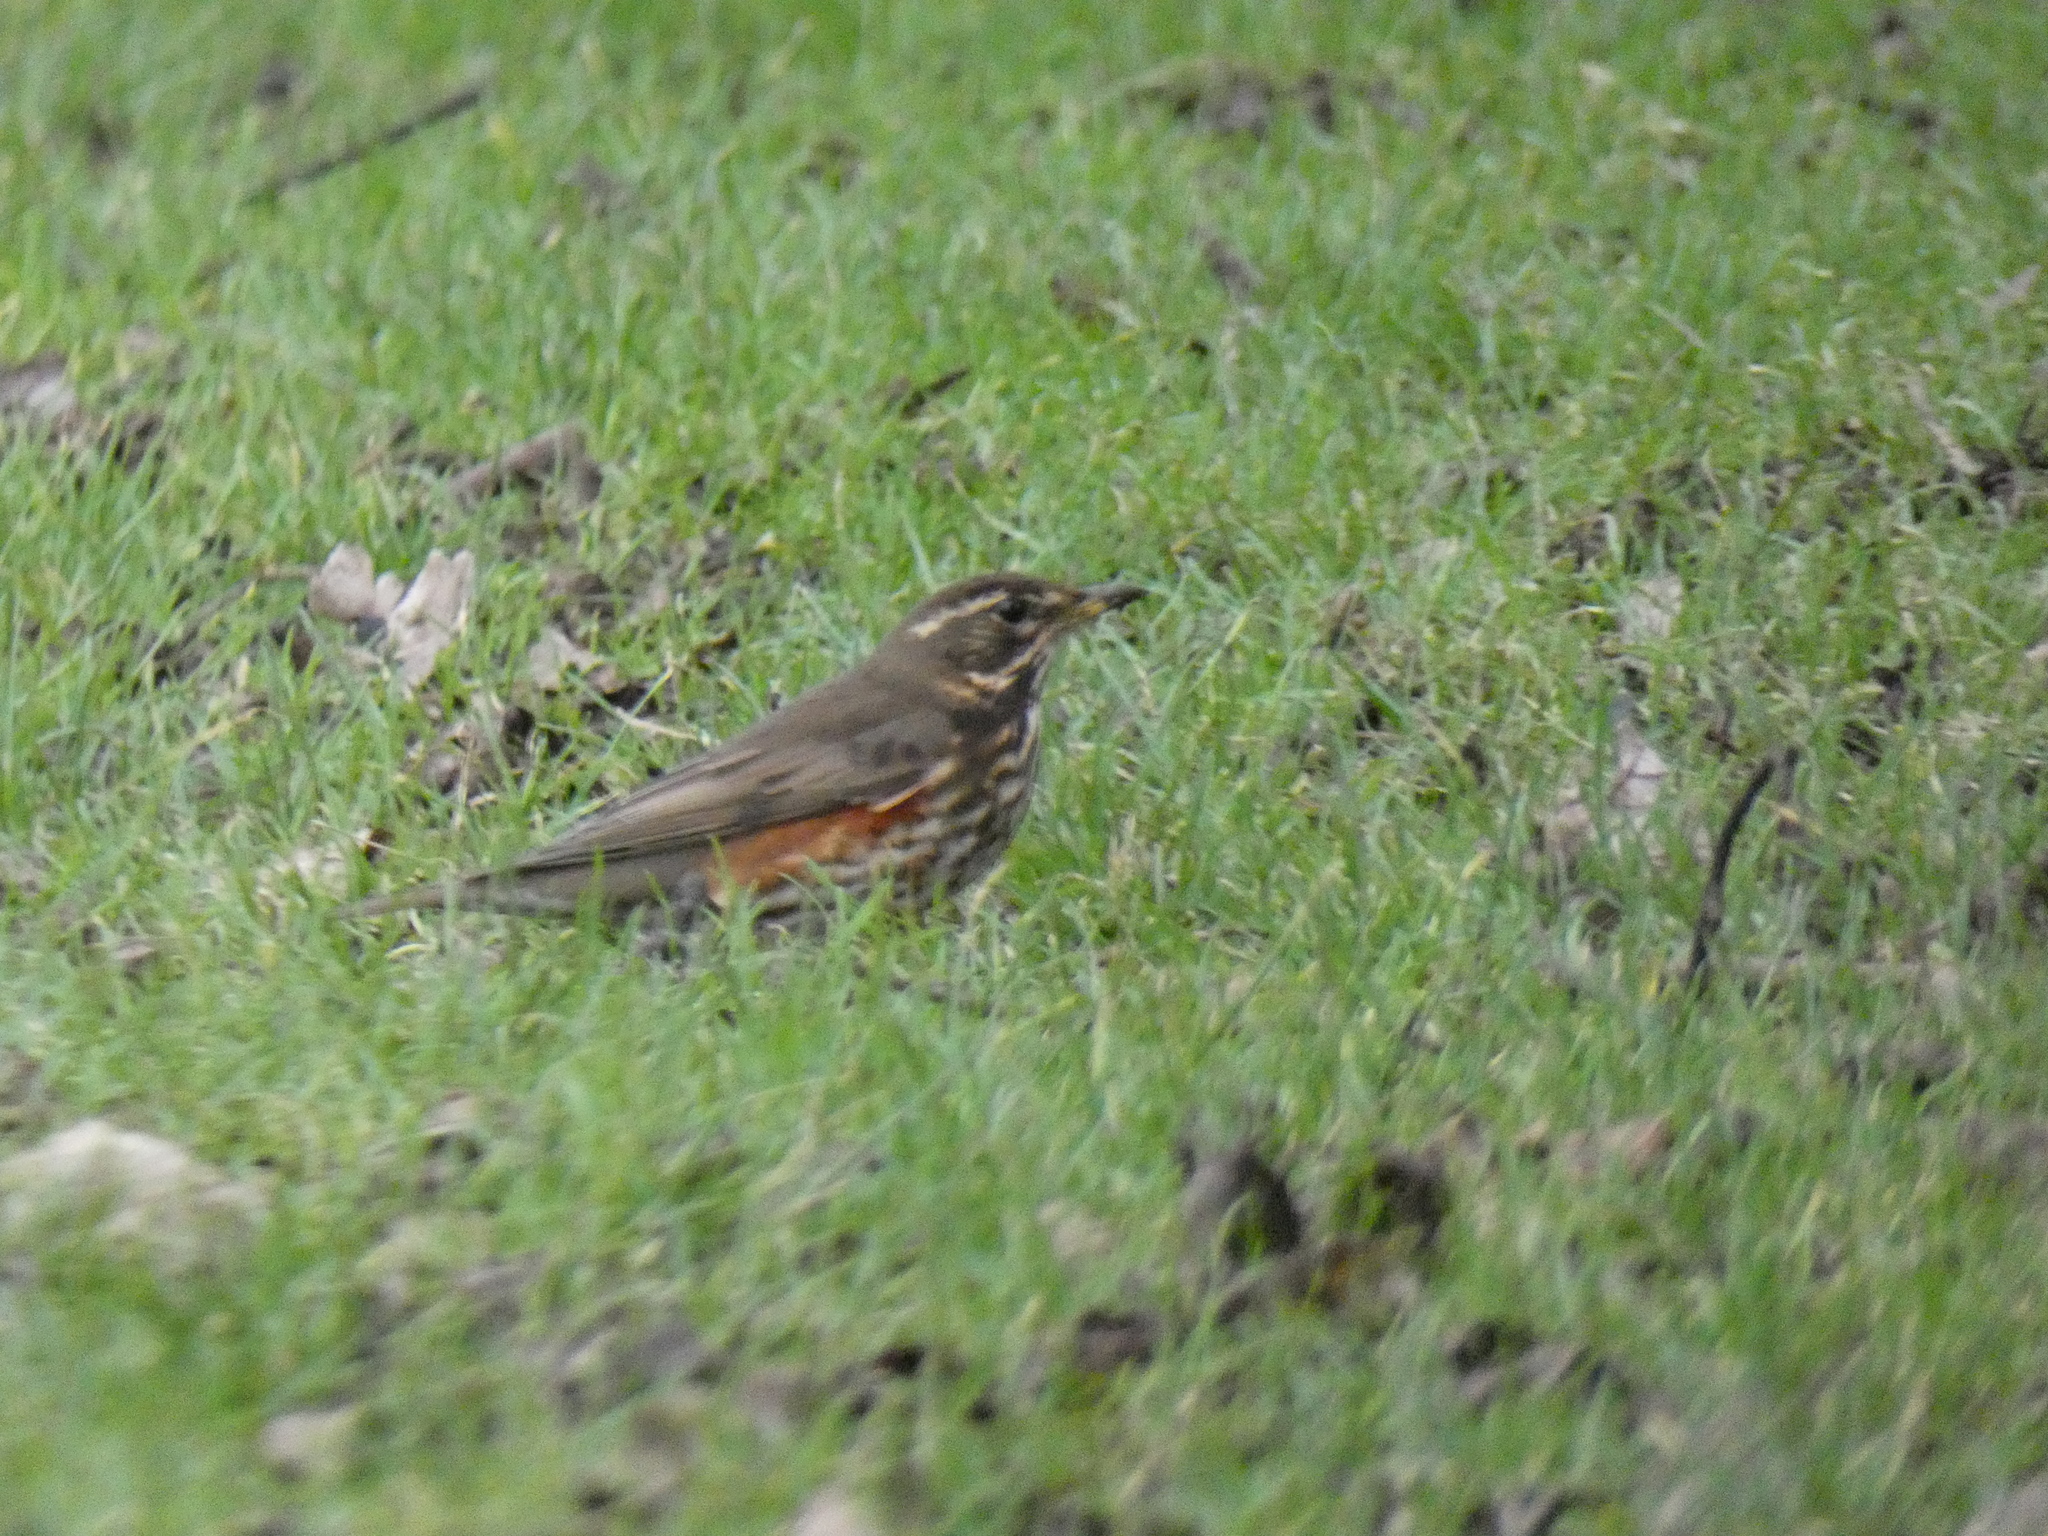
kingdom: Animalia
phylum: Chordata
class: Aves
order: Passeriformes
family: Turdidae
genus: Turdus
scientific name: Turdus iliacus
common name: Redwing
